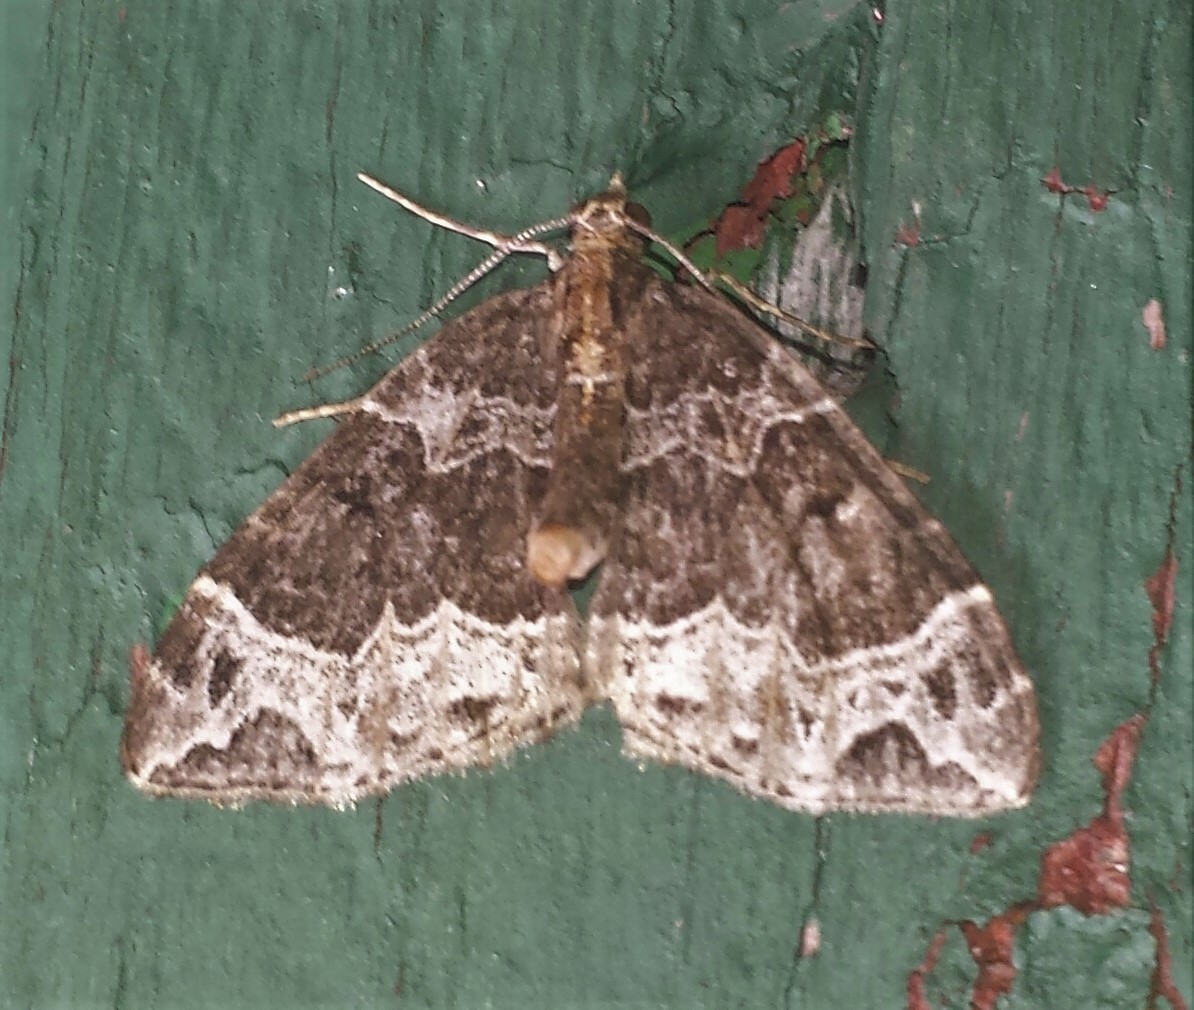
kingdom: Animalia
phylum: Arthropoda
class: Insecta
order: Lepidoptera
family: Geometridae
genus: Ecliptopera
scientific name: Ecliptopera silaceata
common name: Small phoenix
